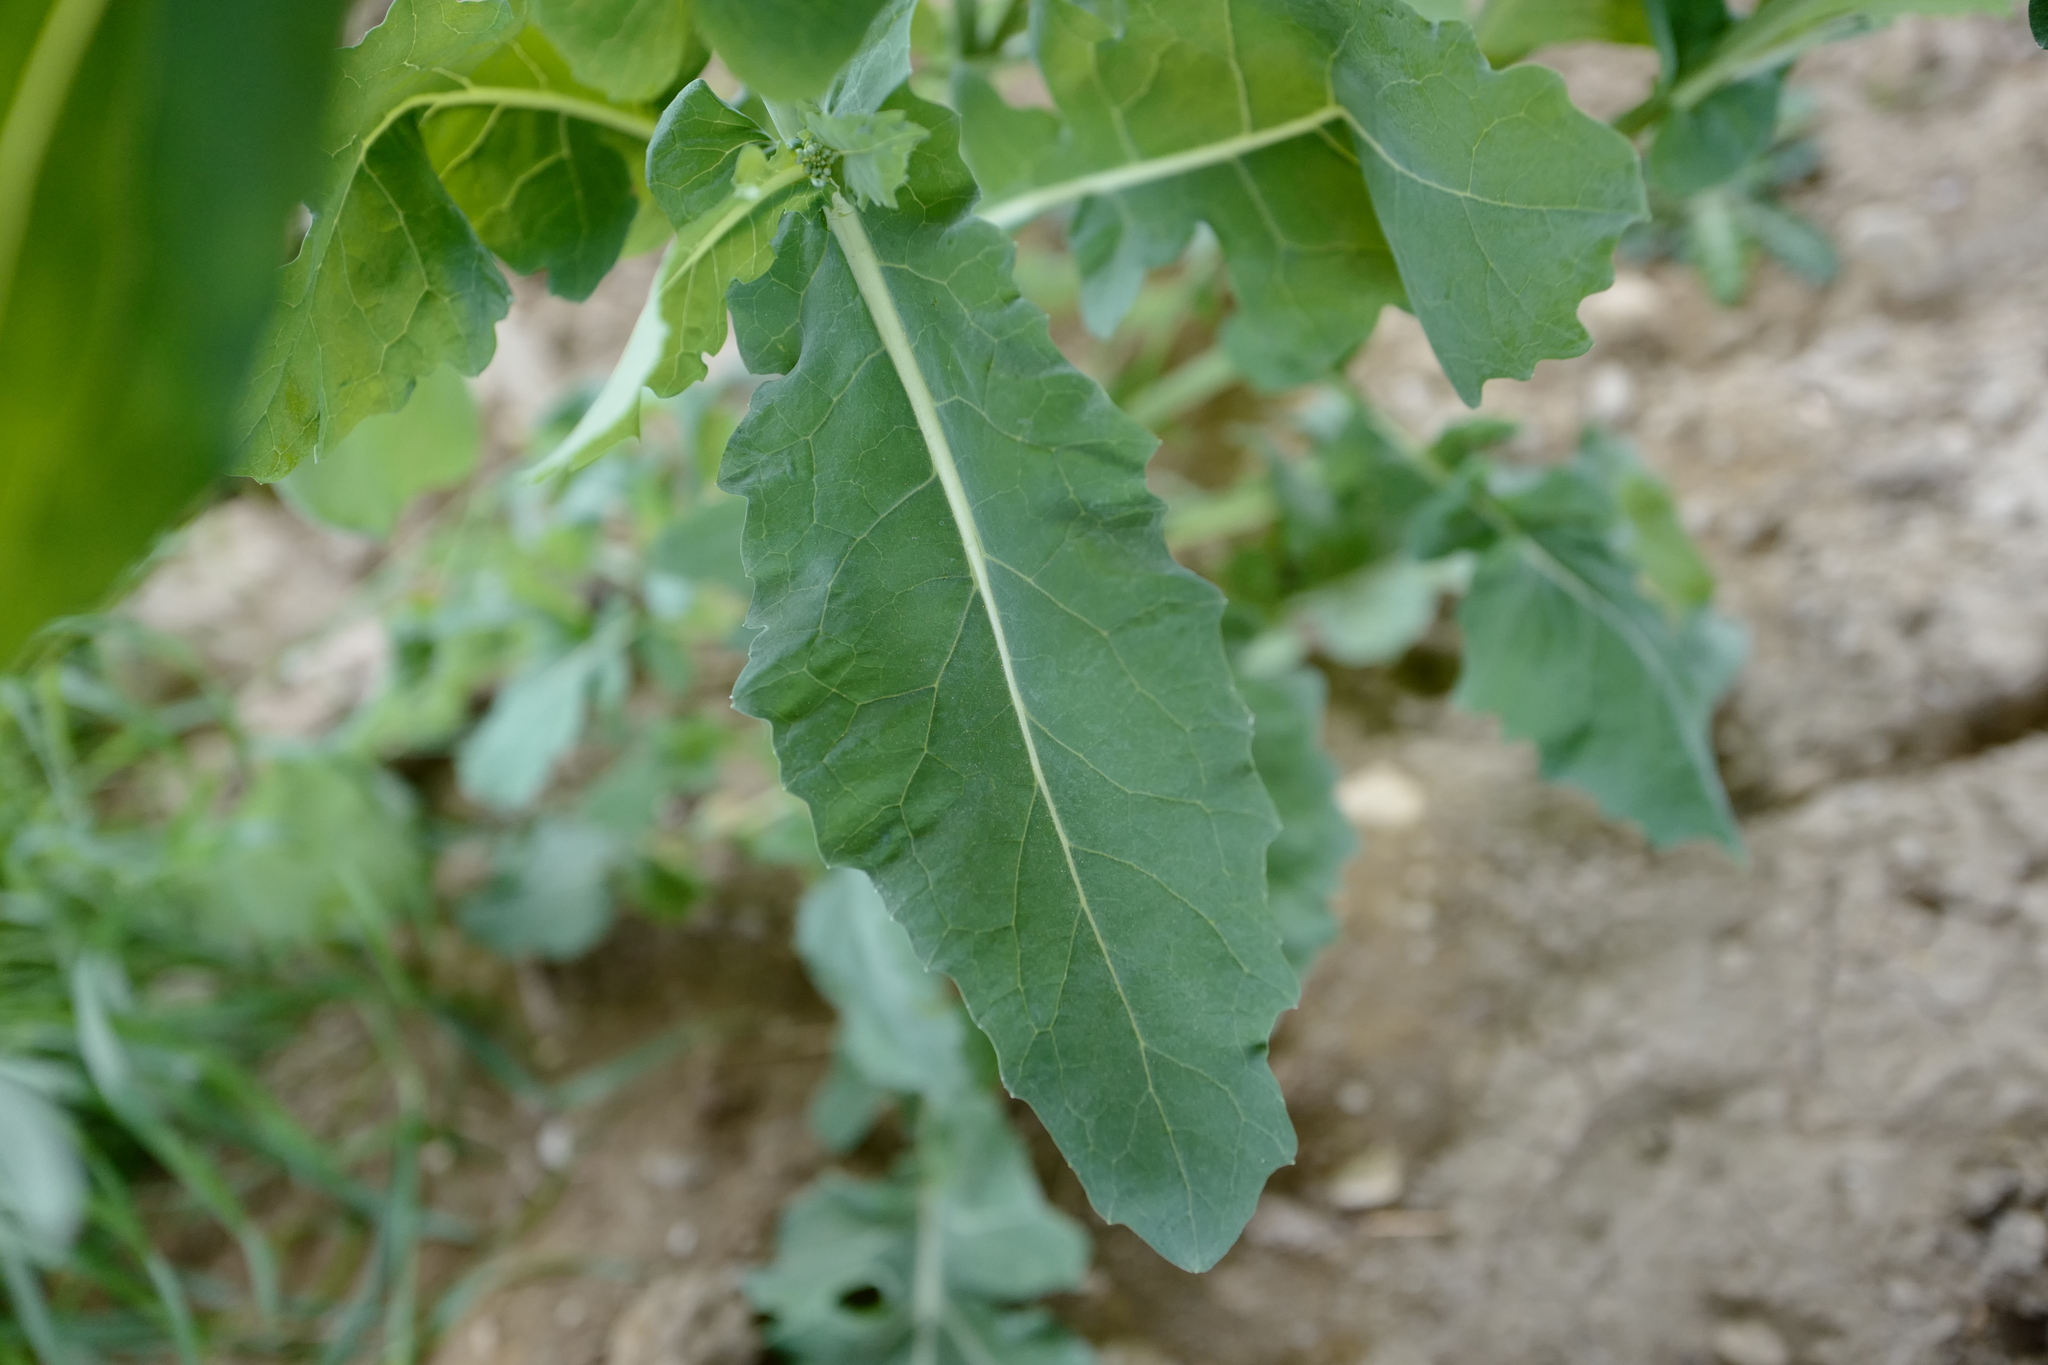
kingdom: Plantae
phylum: Tracheophyta
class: Magnoliopsida
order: Brassicales
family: Brassicaceae
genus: Brassica
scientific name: Brassica rapa
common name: Field mustard
